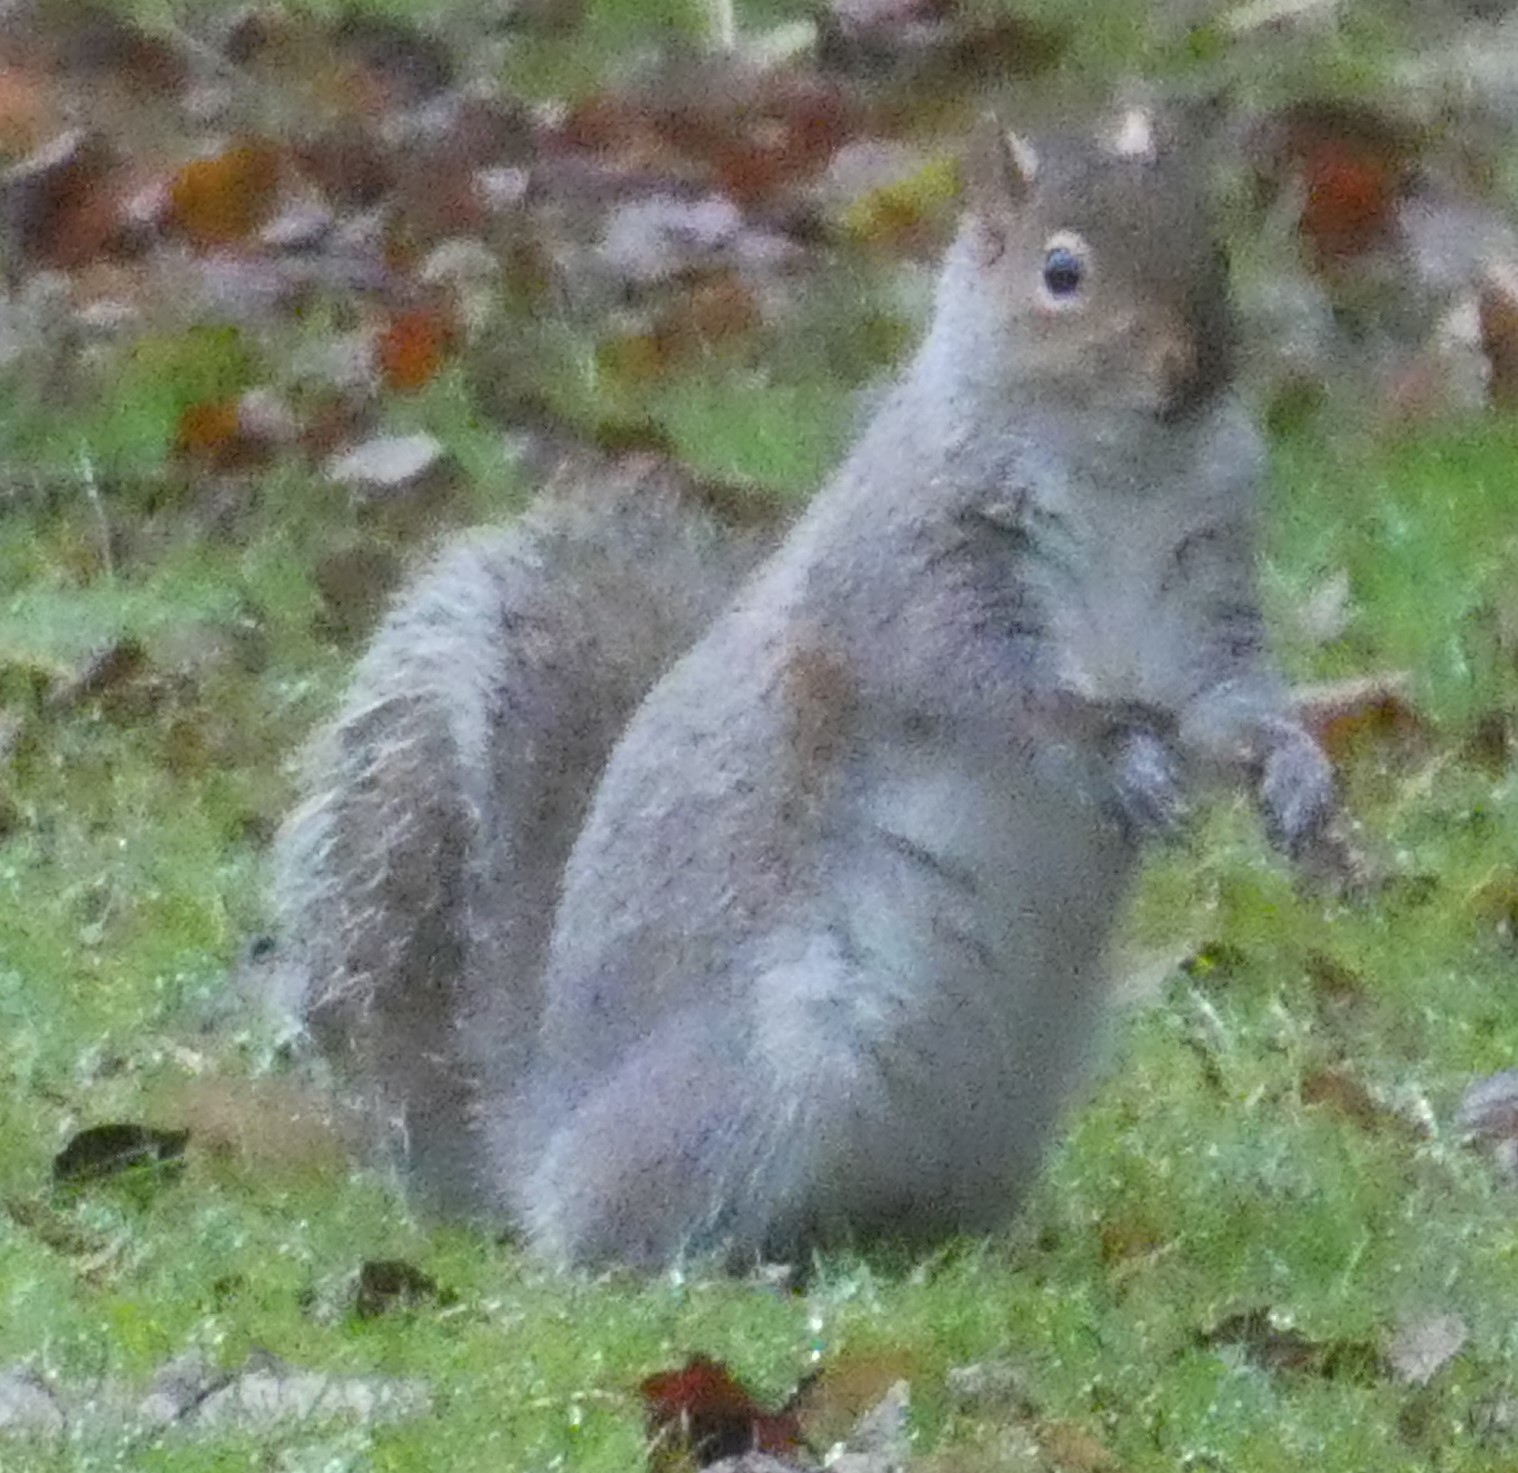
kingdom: Animalia
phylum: Chordata
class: Mammalia
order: Rodentia
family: Sciuridae
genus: Sciurus
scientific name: Sciurus carolinensis
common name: Eastern gray squirrel
